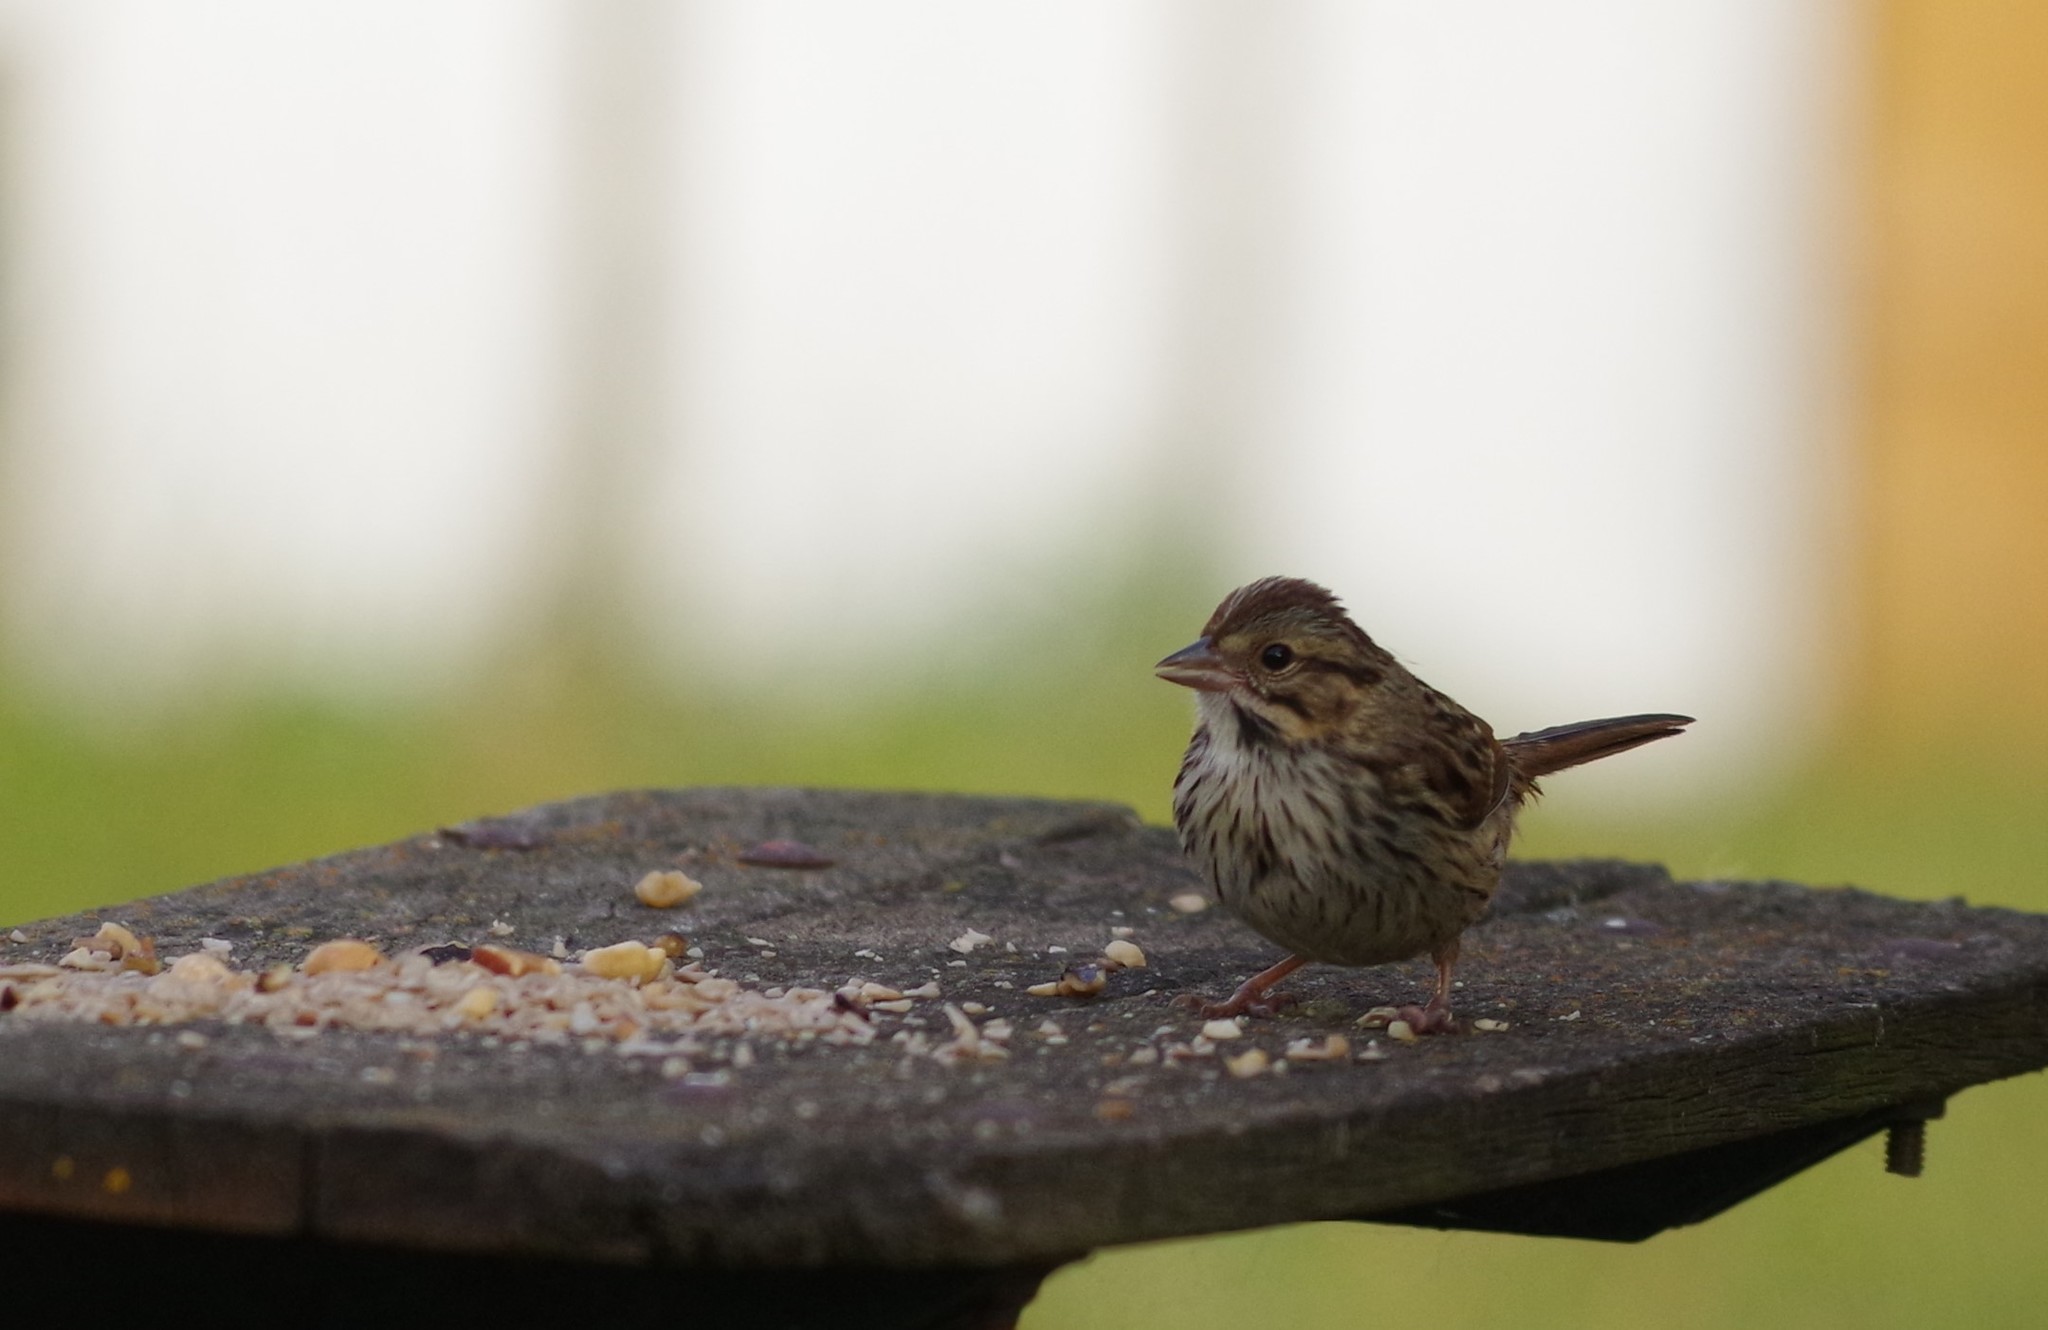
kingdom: Animalia
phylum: Chordata
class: Aves
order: Passeriformes
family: Passerellidae
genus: Melospiza
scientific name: Melospiza melodia
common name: Song sparrow
